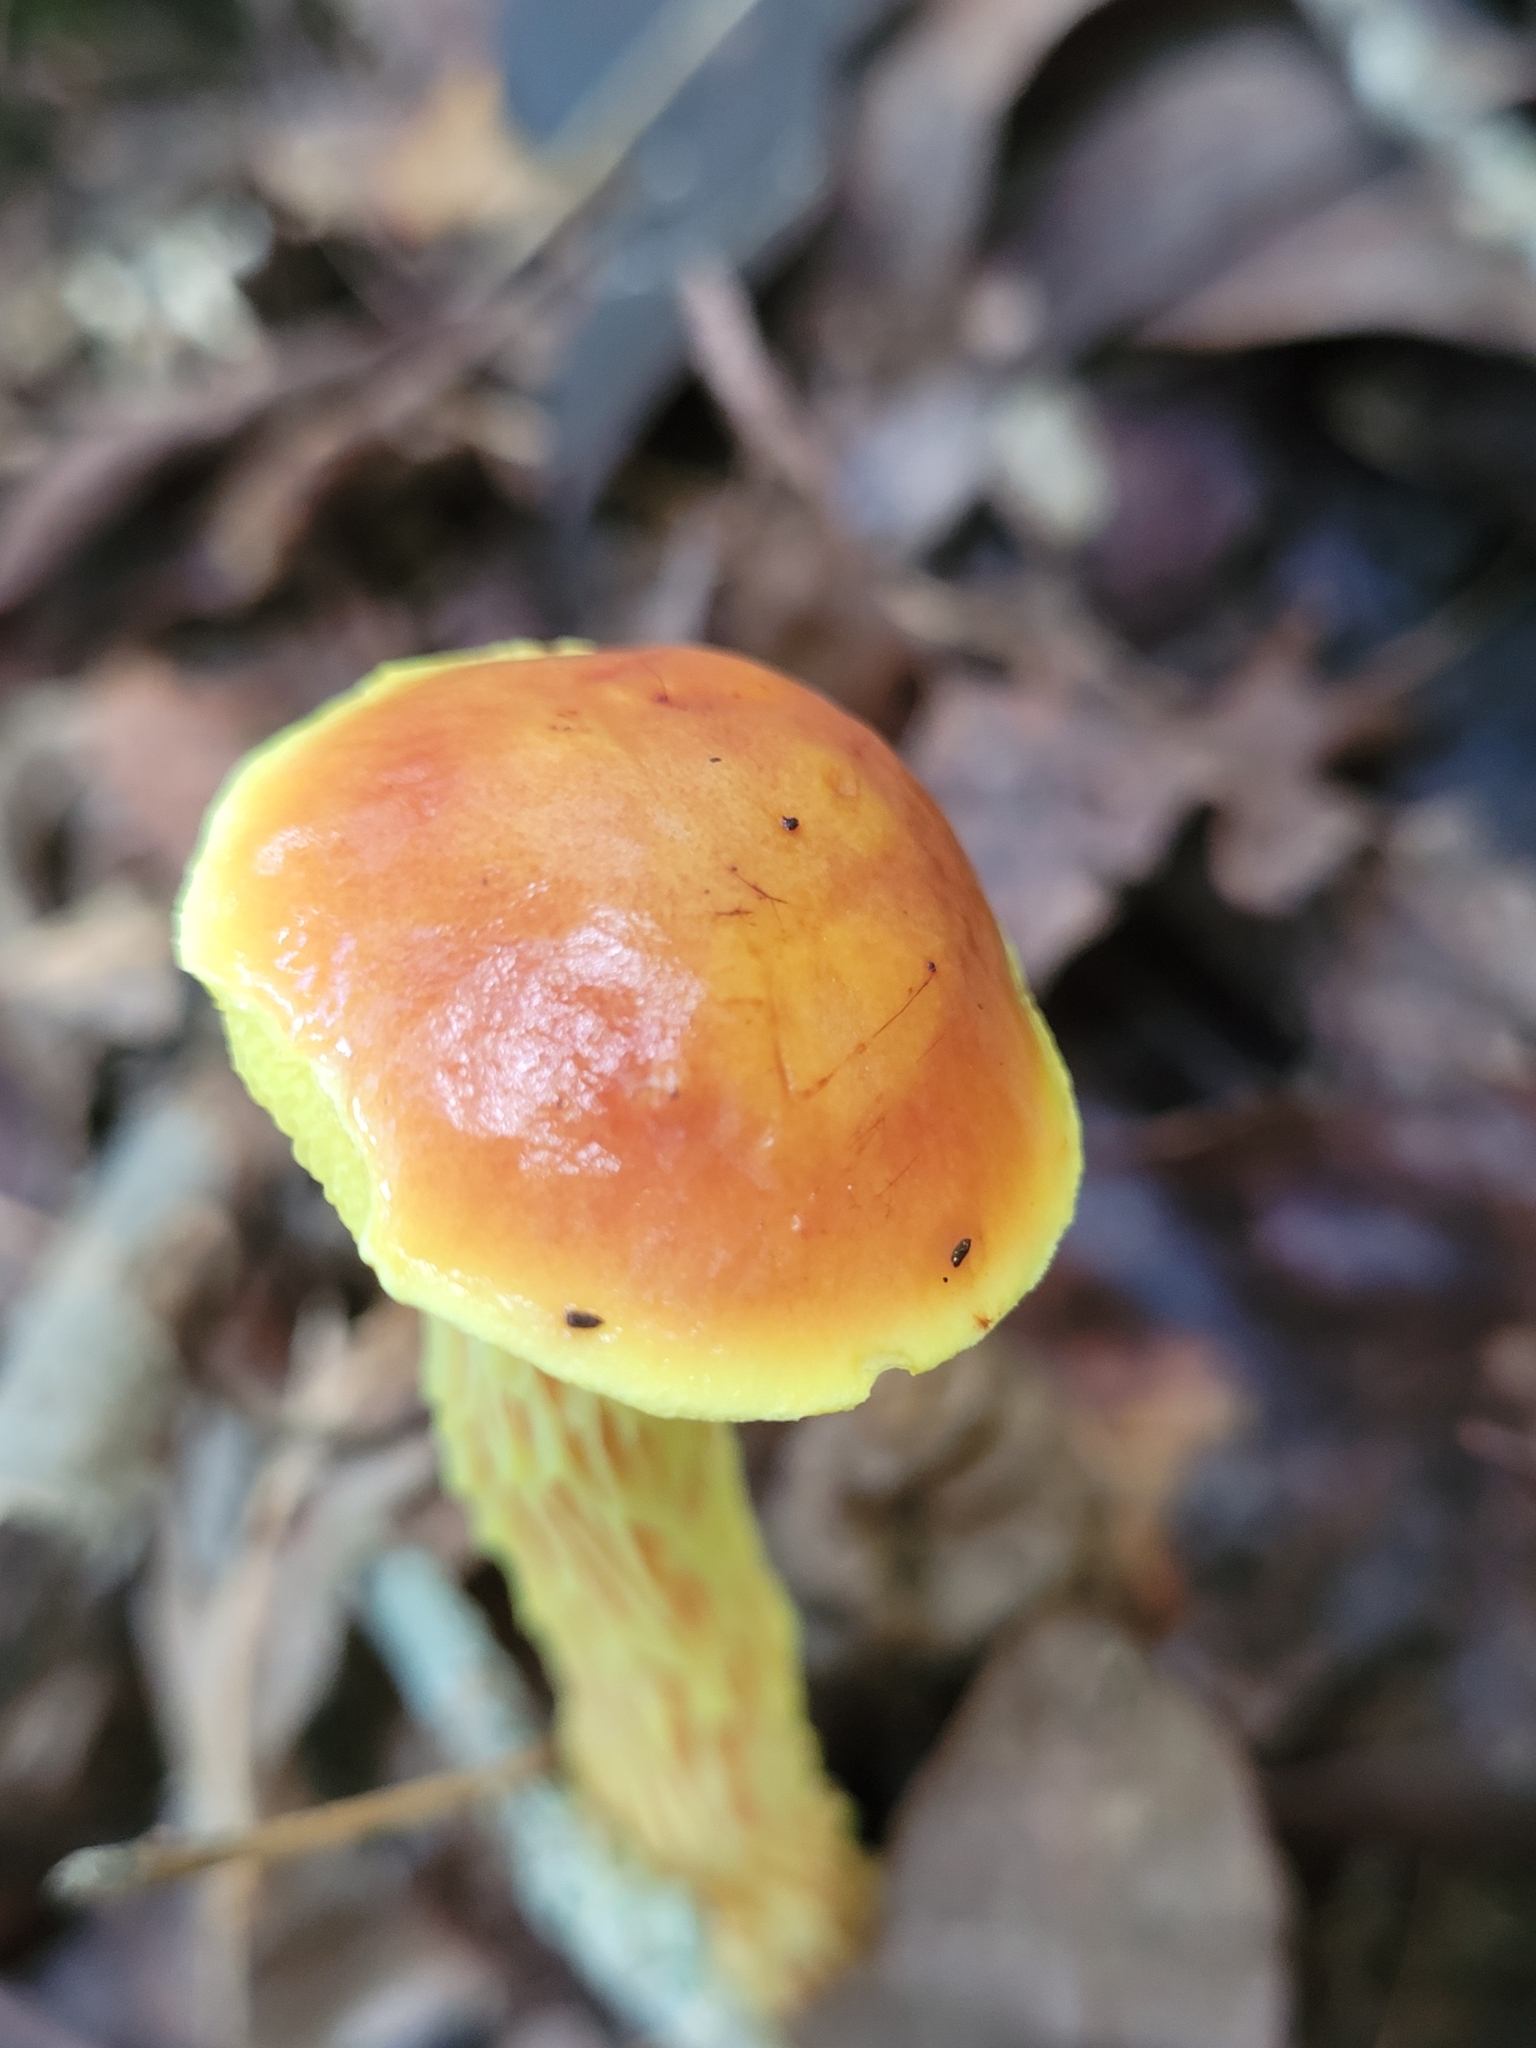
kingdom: Fungi
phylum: Basidiomycota
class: Agaricomycetes
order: Boletales
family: Boletaceae
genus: Aureoboletus
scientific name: Aureoboletus betula
